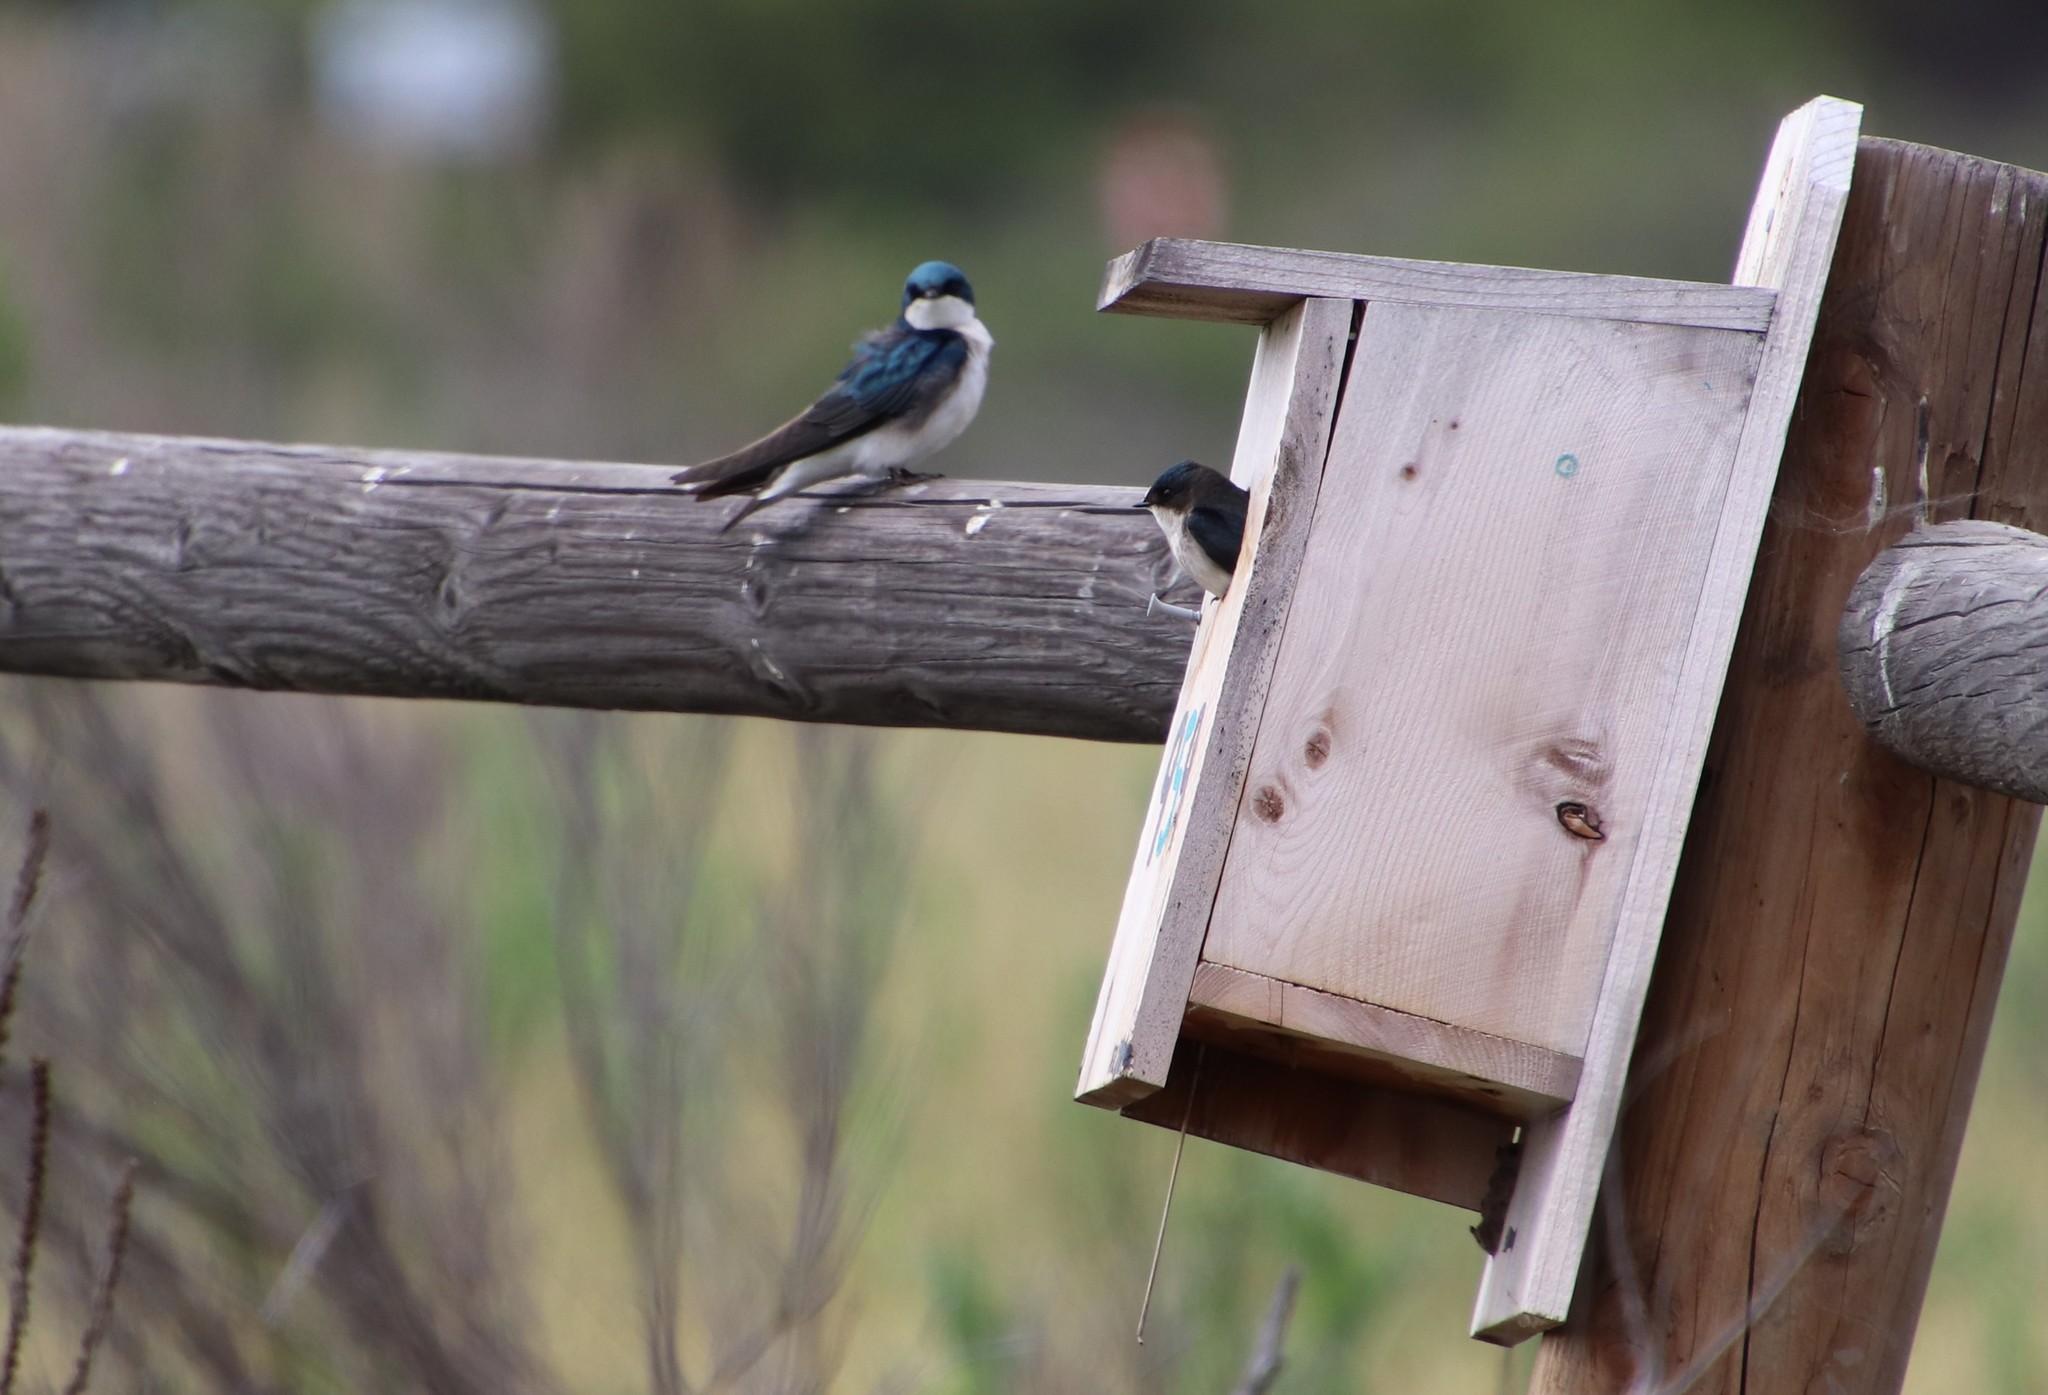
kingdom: Animalia
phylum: Chordata
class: Aves
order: Passeriformes
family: Hirundinidae
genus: Tachycineta
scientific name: Tachycineta bicolor
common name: Tree swallow
